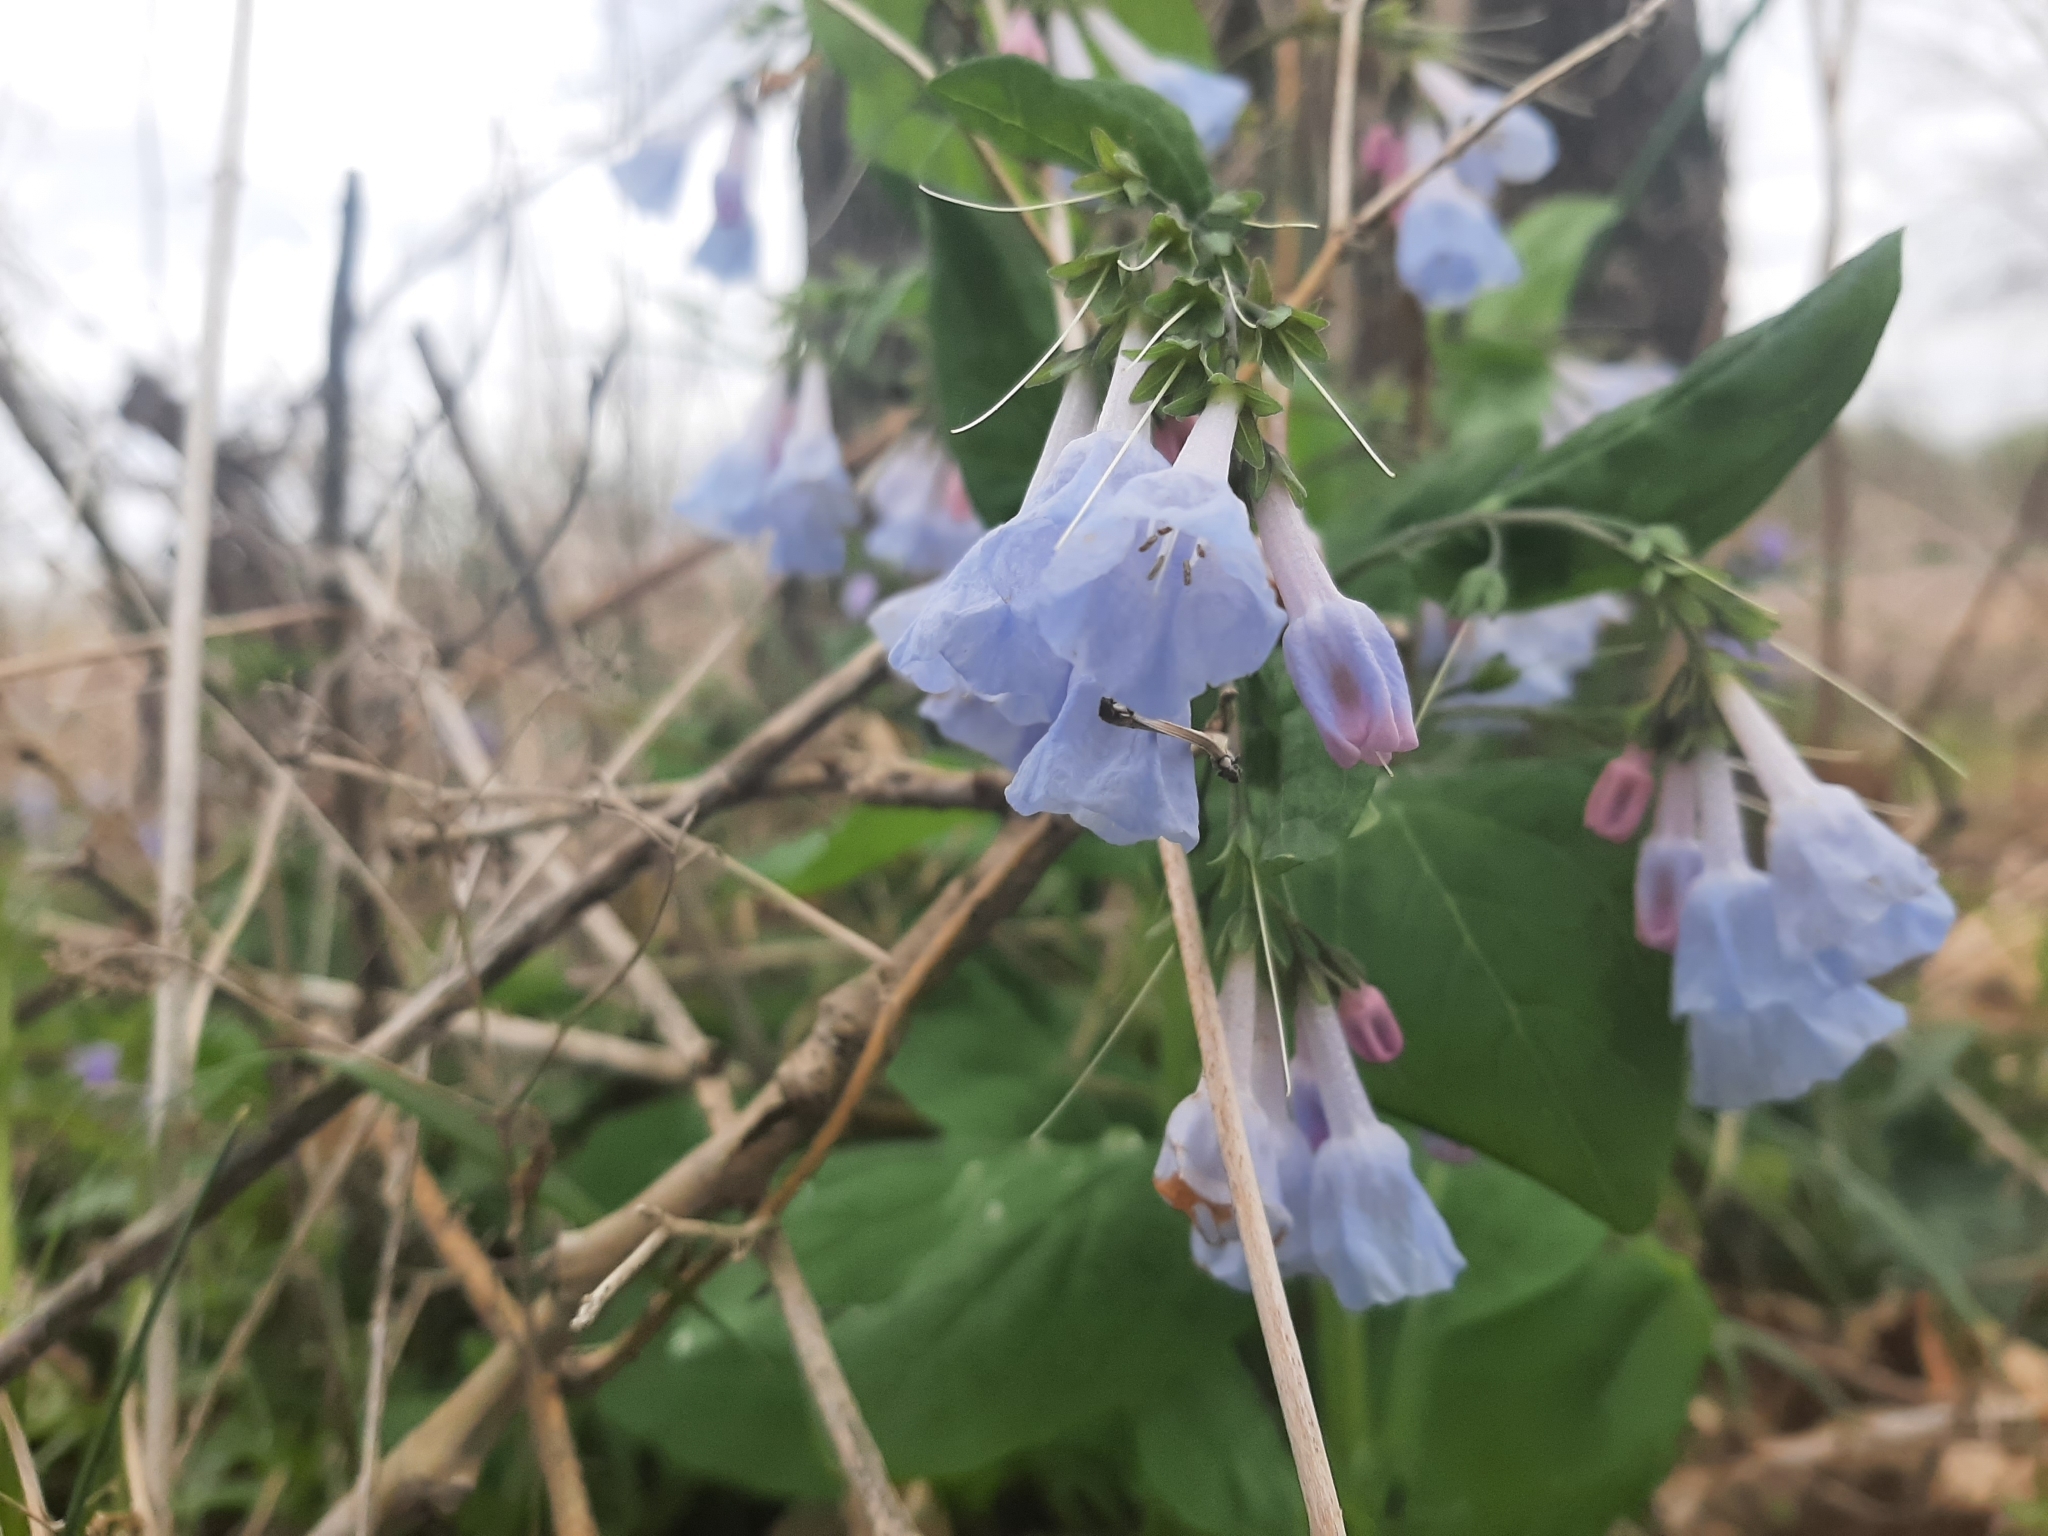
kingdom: Plantae
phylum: Tracheophyta
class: Magnoliopsida
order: Boraginales
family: Boraginaceae
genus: Mertensia
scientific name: Mertensia virginica
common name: Virginia bluebells
